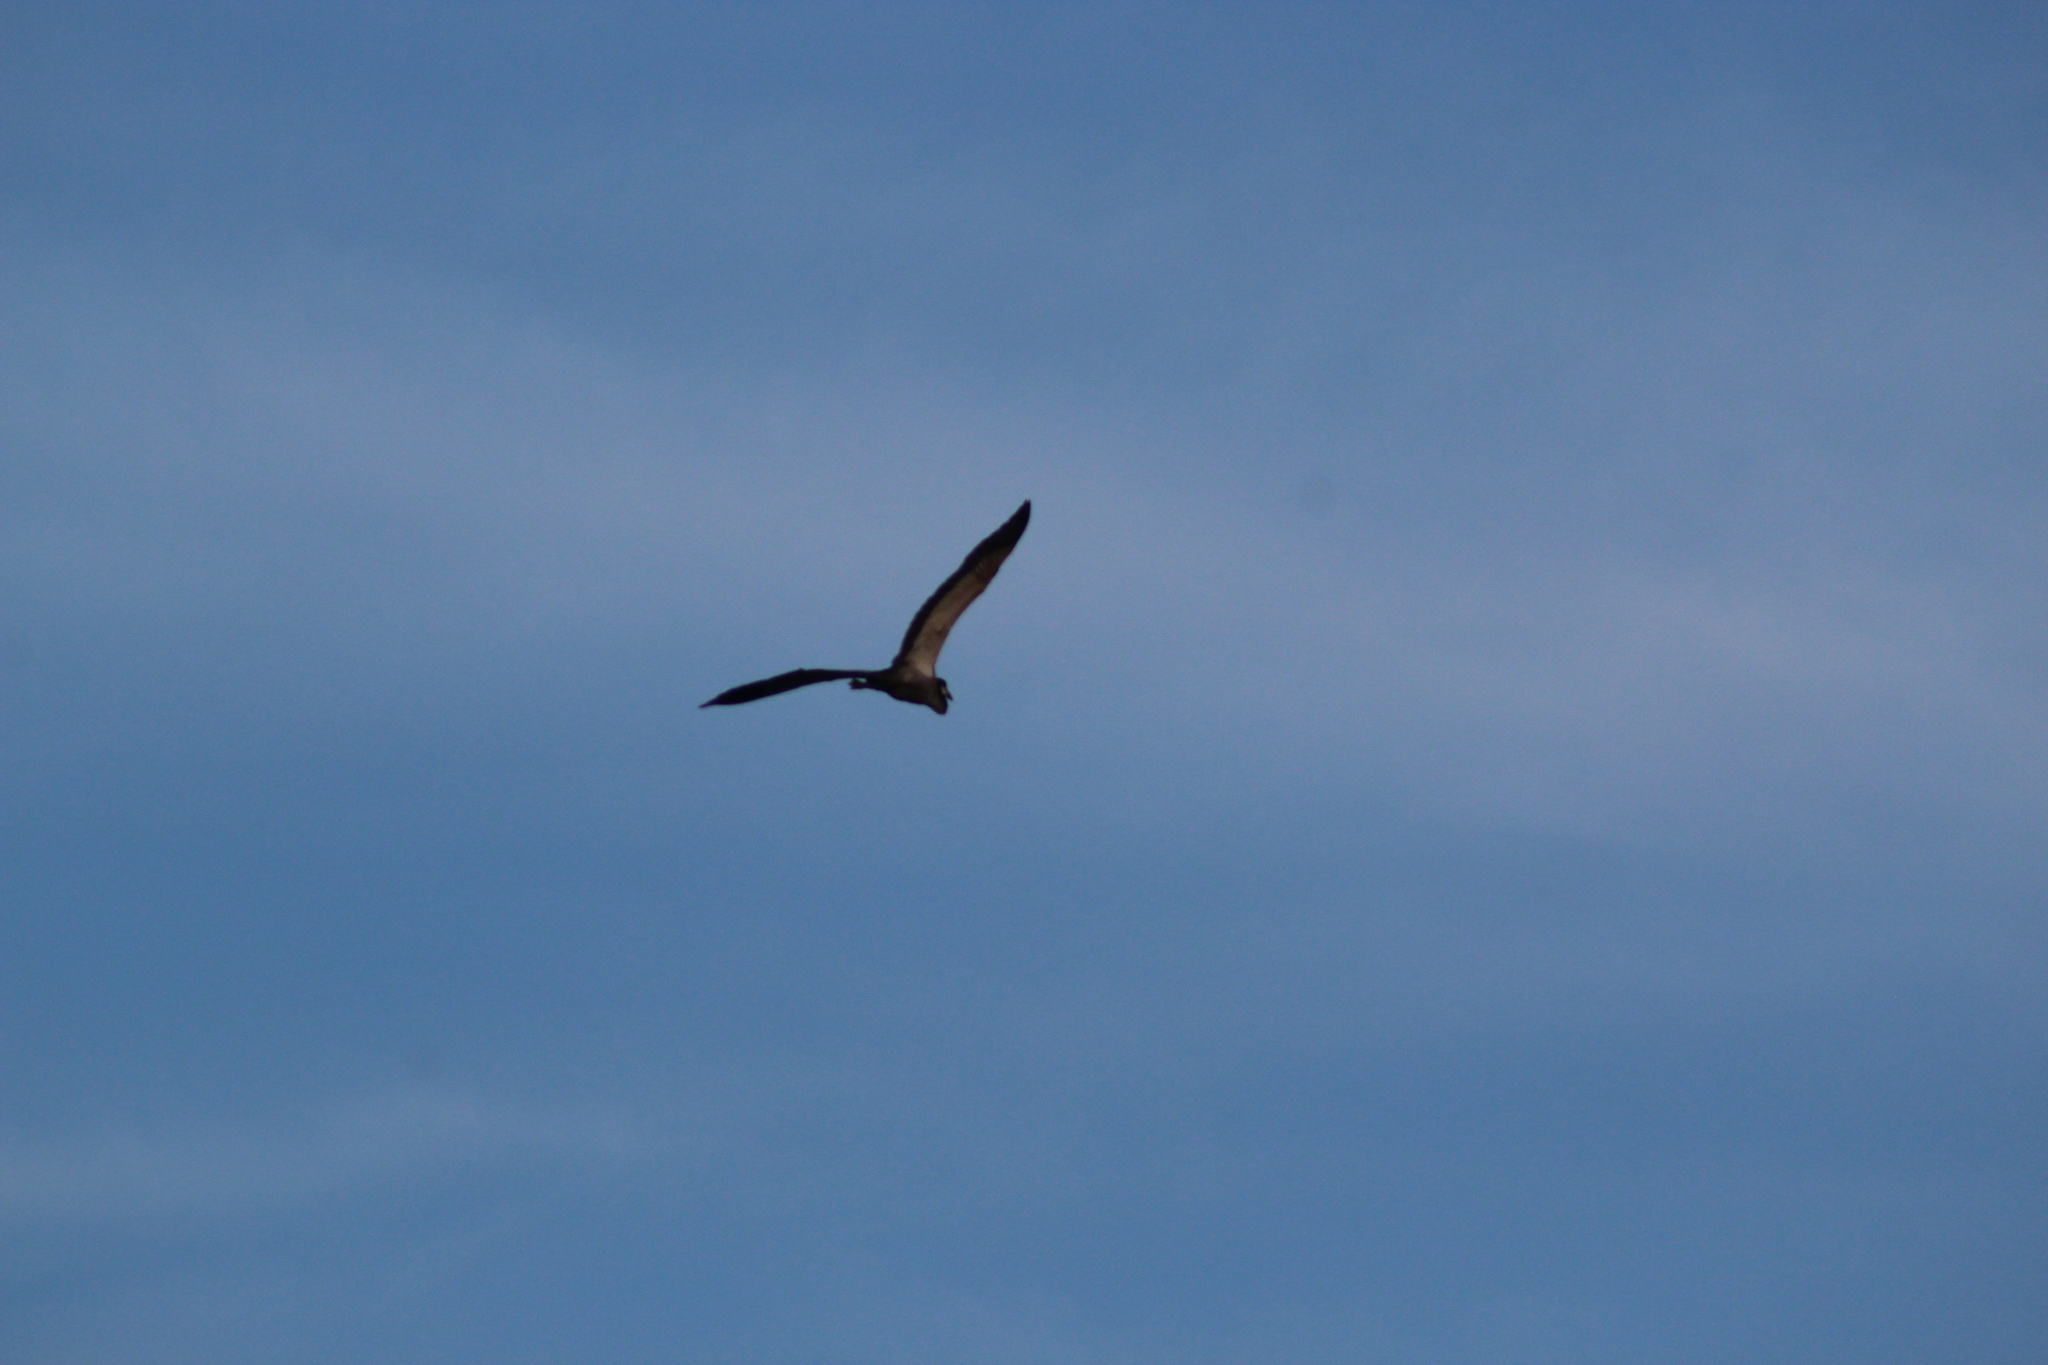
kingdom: Animalia
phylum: Chordata
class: Aves
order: Pelecaniformes
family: Ardeidae
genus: Ardea
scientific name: Ardea melanocephala
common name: Black-headed heron
